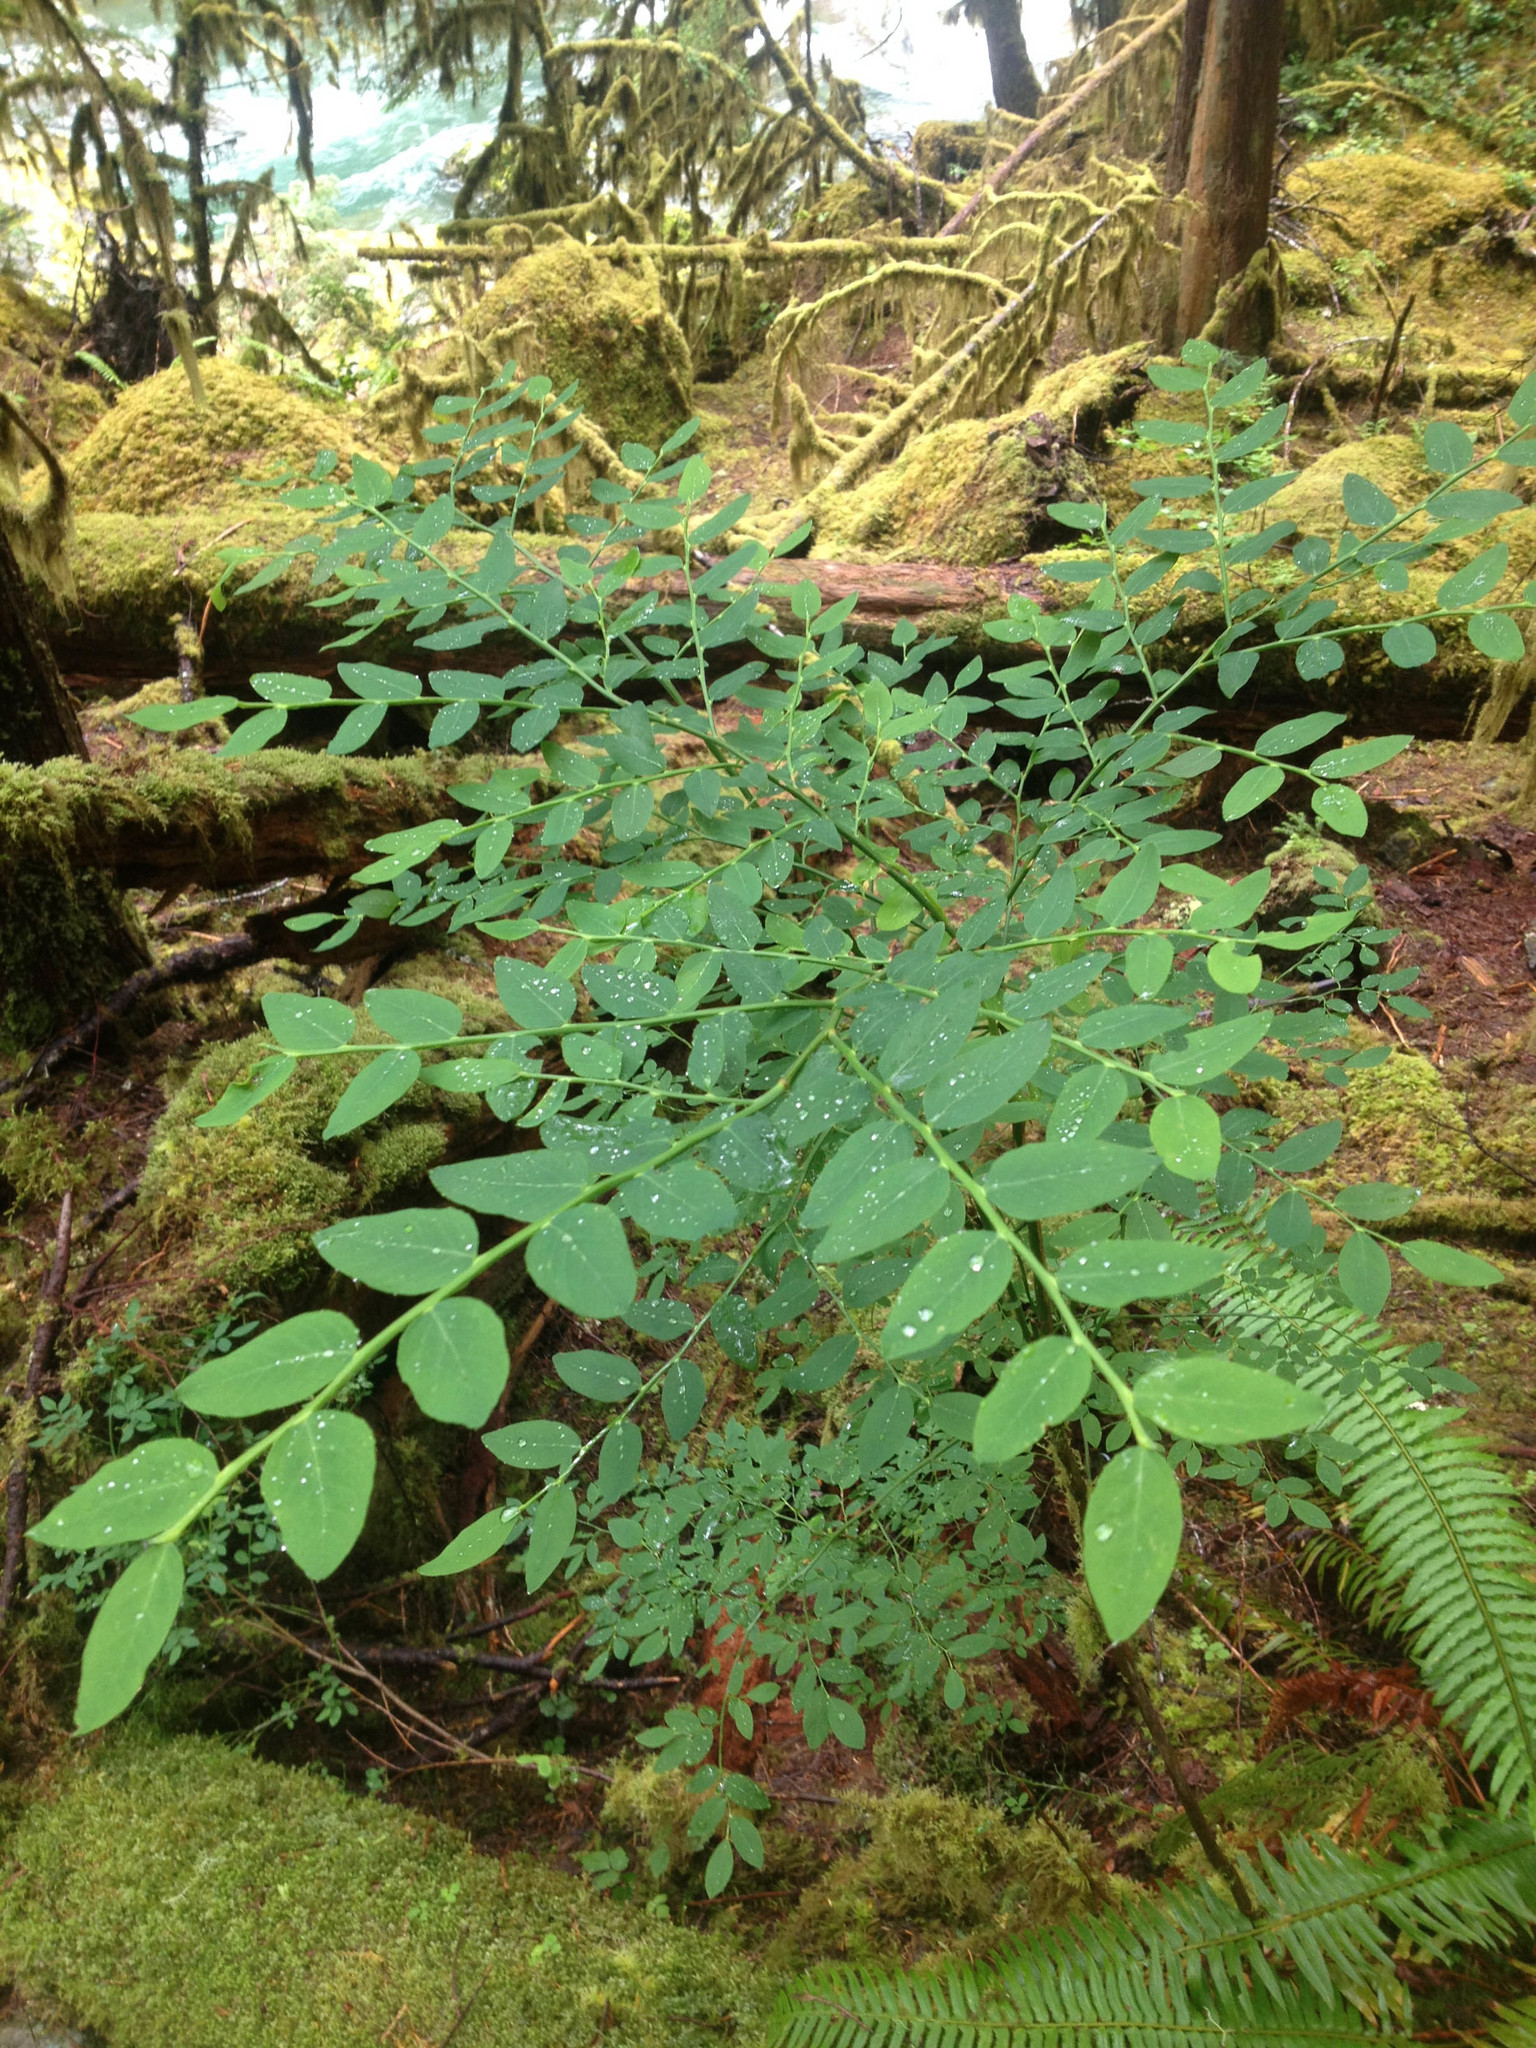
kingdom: Plantae
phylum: Tracheophyta
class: Magnoliopsida
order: Ericales
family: Ericaceae
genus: Vaccinium
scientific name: Vaccinium ovalifolium
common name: Early blueberry
